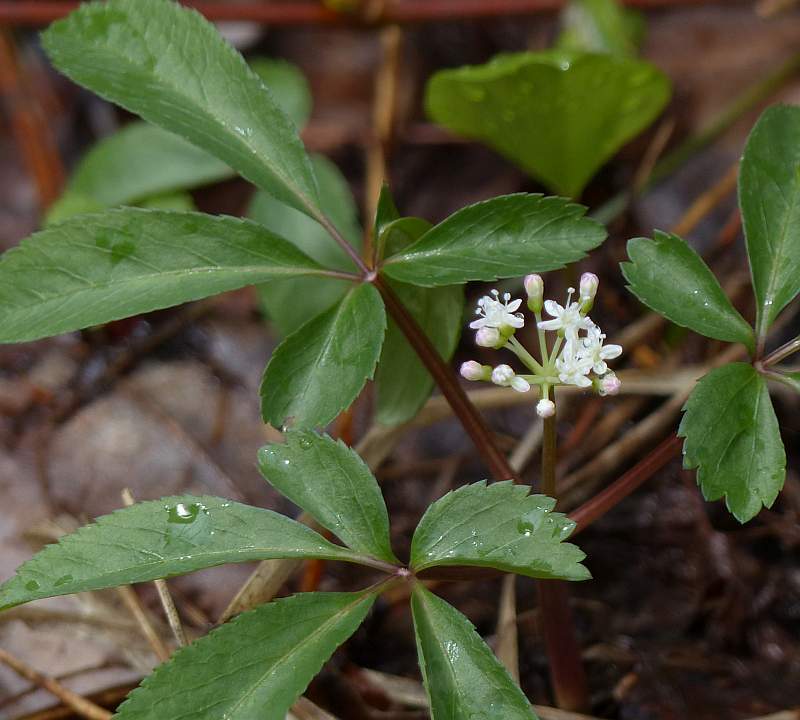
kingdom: Plantae
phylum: Tracheophyta
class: Magnoliopsida
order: Apiales
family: Araliaceae
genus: Panax
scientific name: Panax trifolius
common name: Dwarf ginseng
